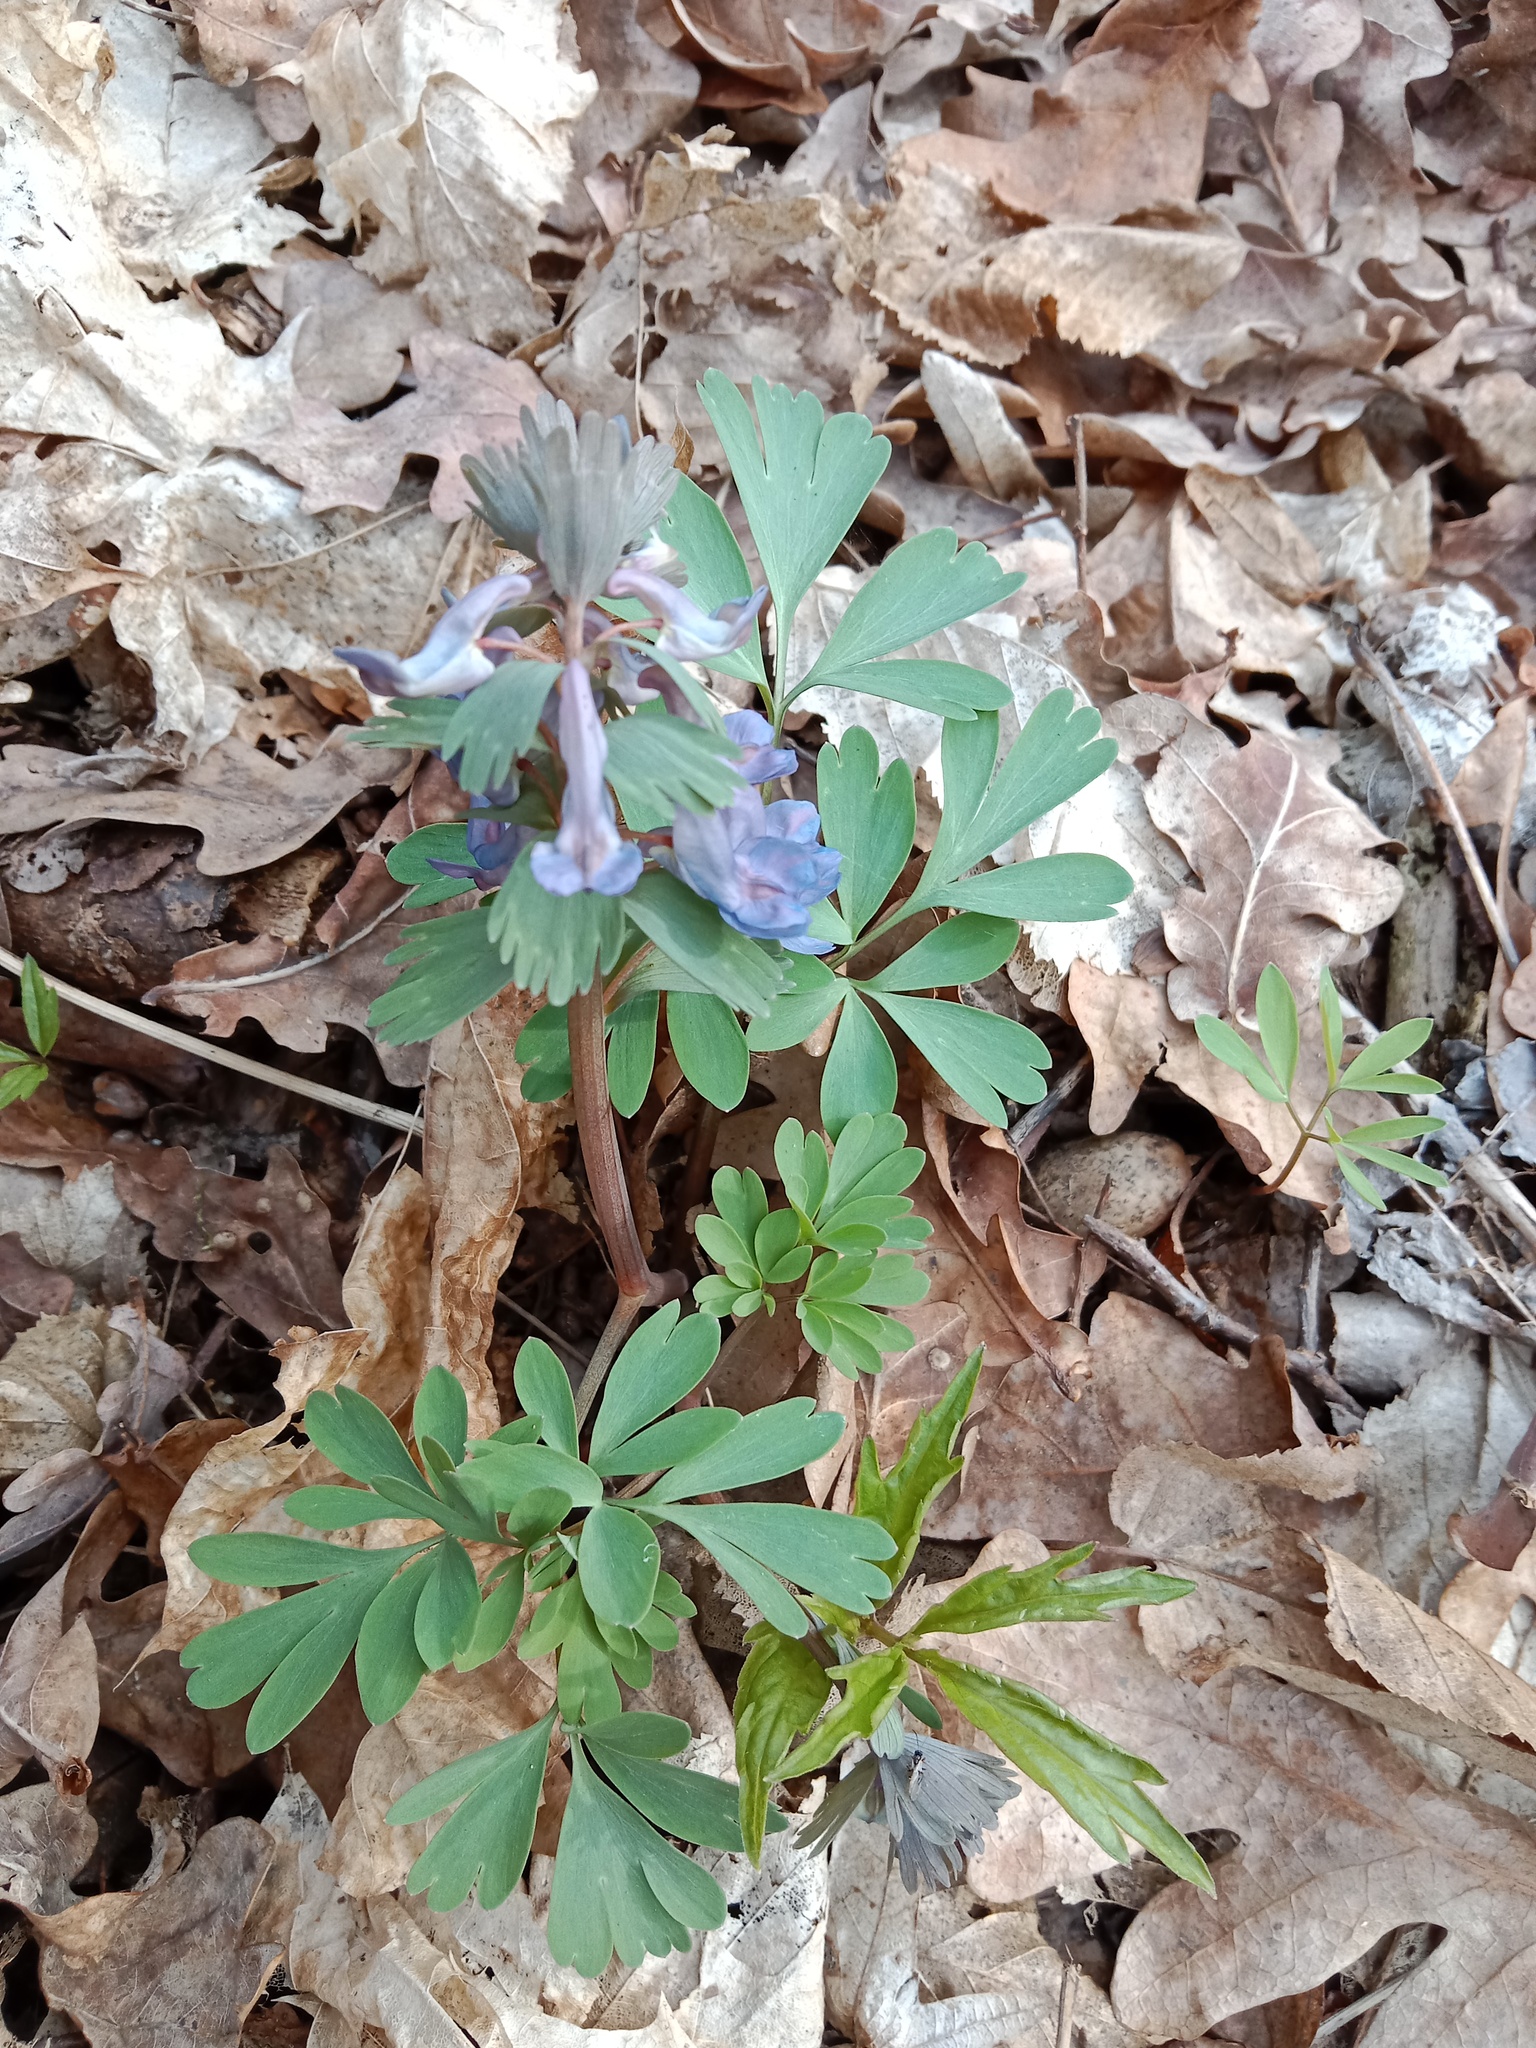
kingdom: Plantae
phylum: Tracheophyta
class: Magnoliopsida
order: Ranunculales
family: Papaveraceae
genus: Corydalis
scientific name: Corydalis solida
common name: Bird-in-a-bush
